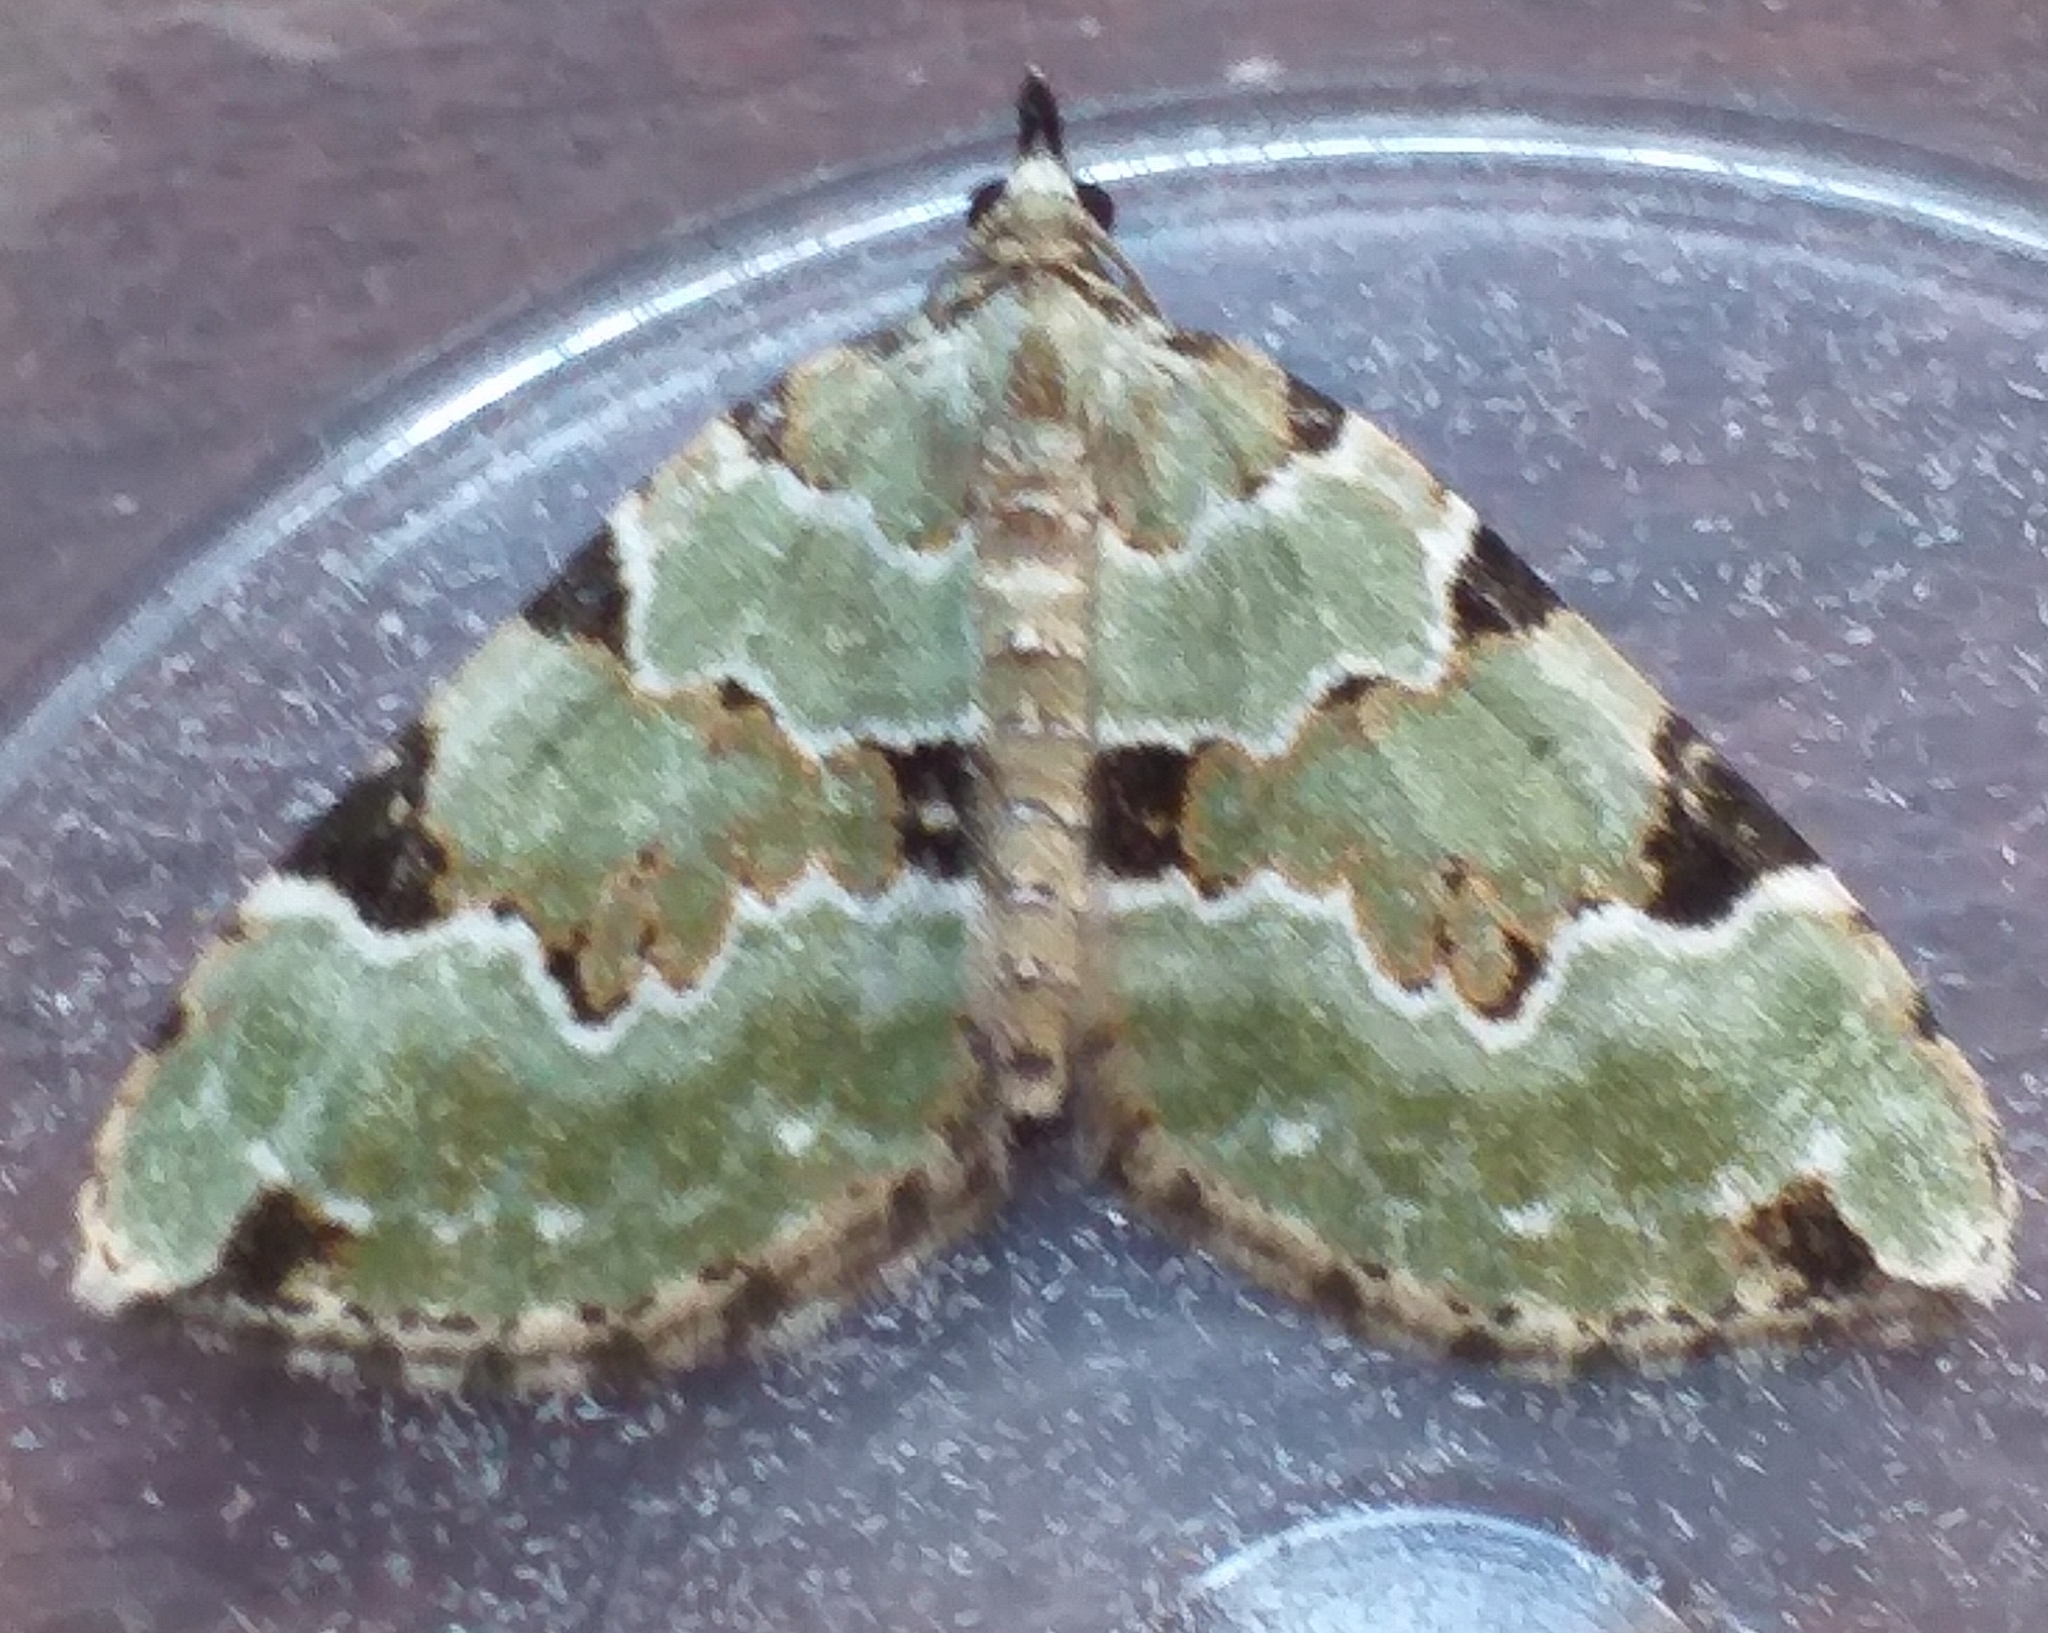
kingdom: Animalia
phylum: Arthropoda
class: Insecta
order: Lepidoptera
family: Geometridae
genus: Colostygia
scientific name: Colostygia pectinataria
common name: Green carpet
